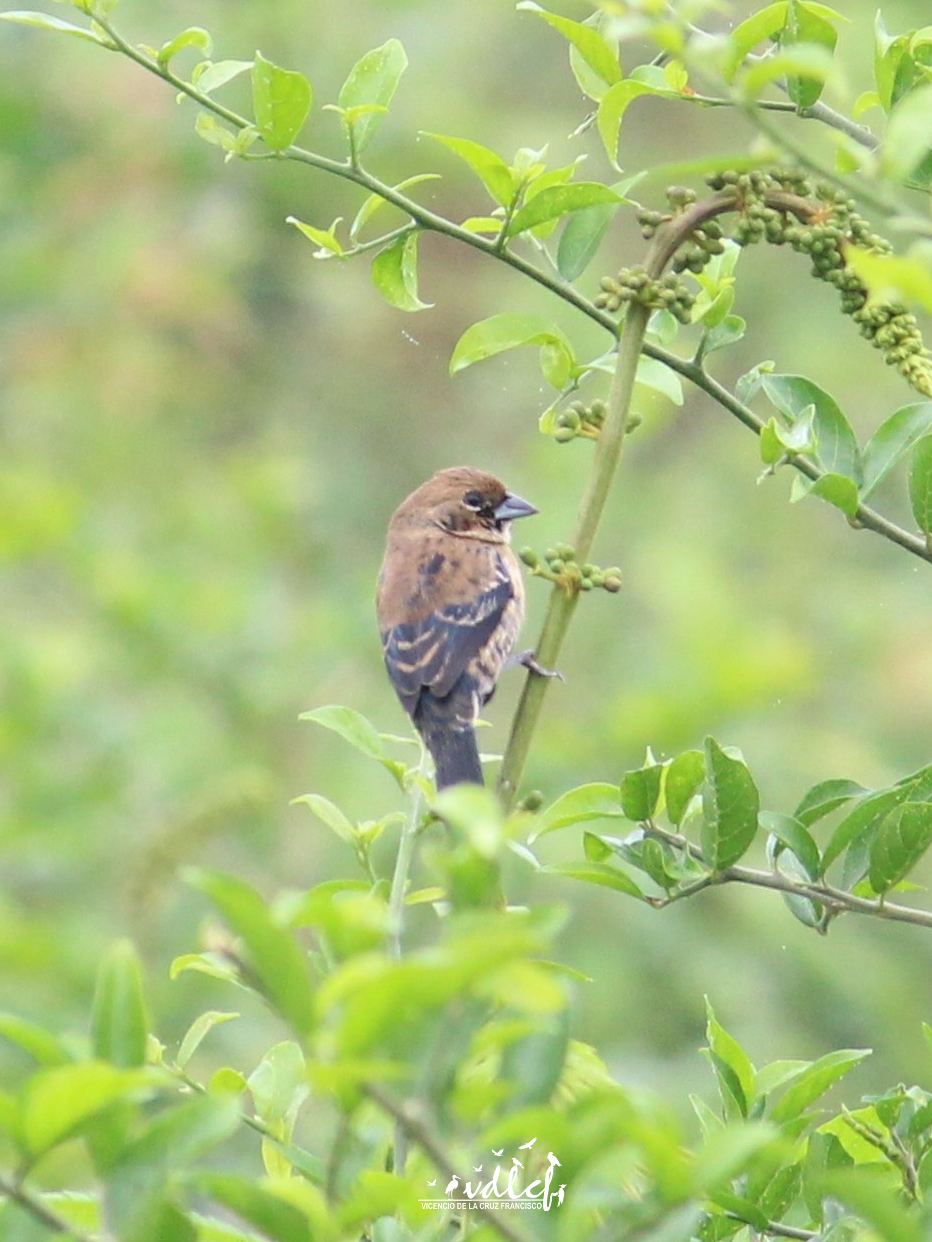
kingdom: Animalia
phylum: Chordata
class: Aves
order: Passeriformes
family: Thraupidae
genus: Volatinia
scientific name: Volatinia jacarina
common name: Blue-black grassquit
